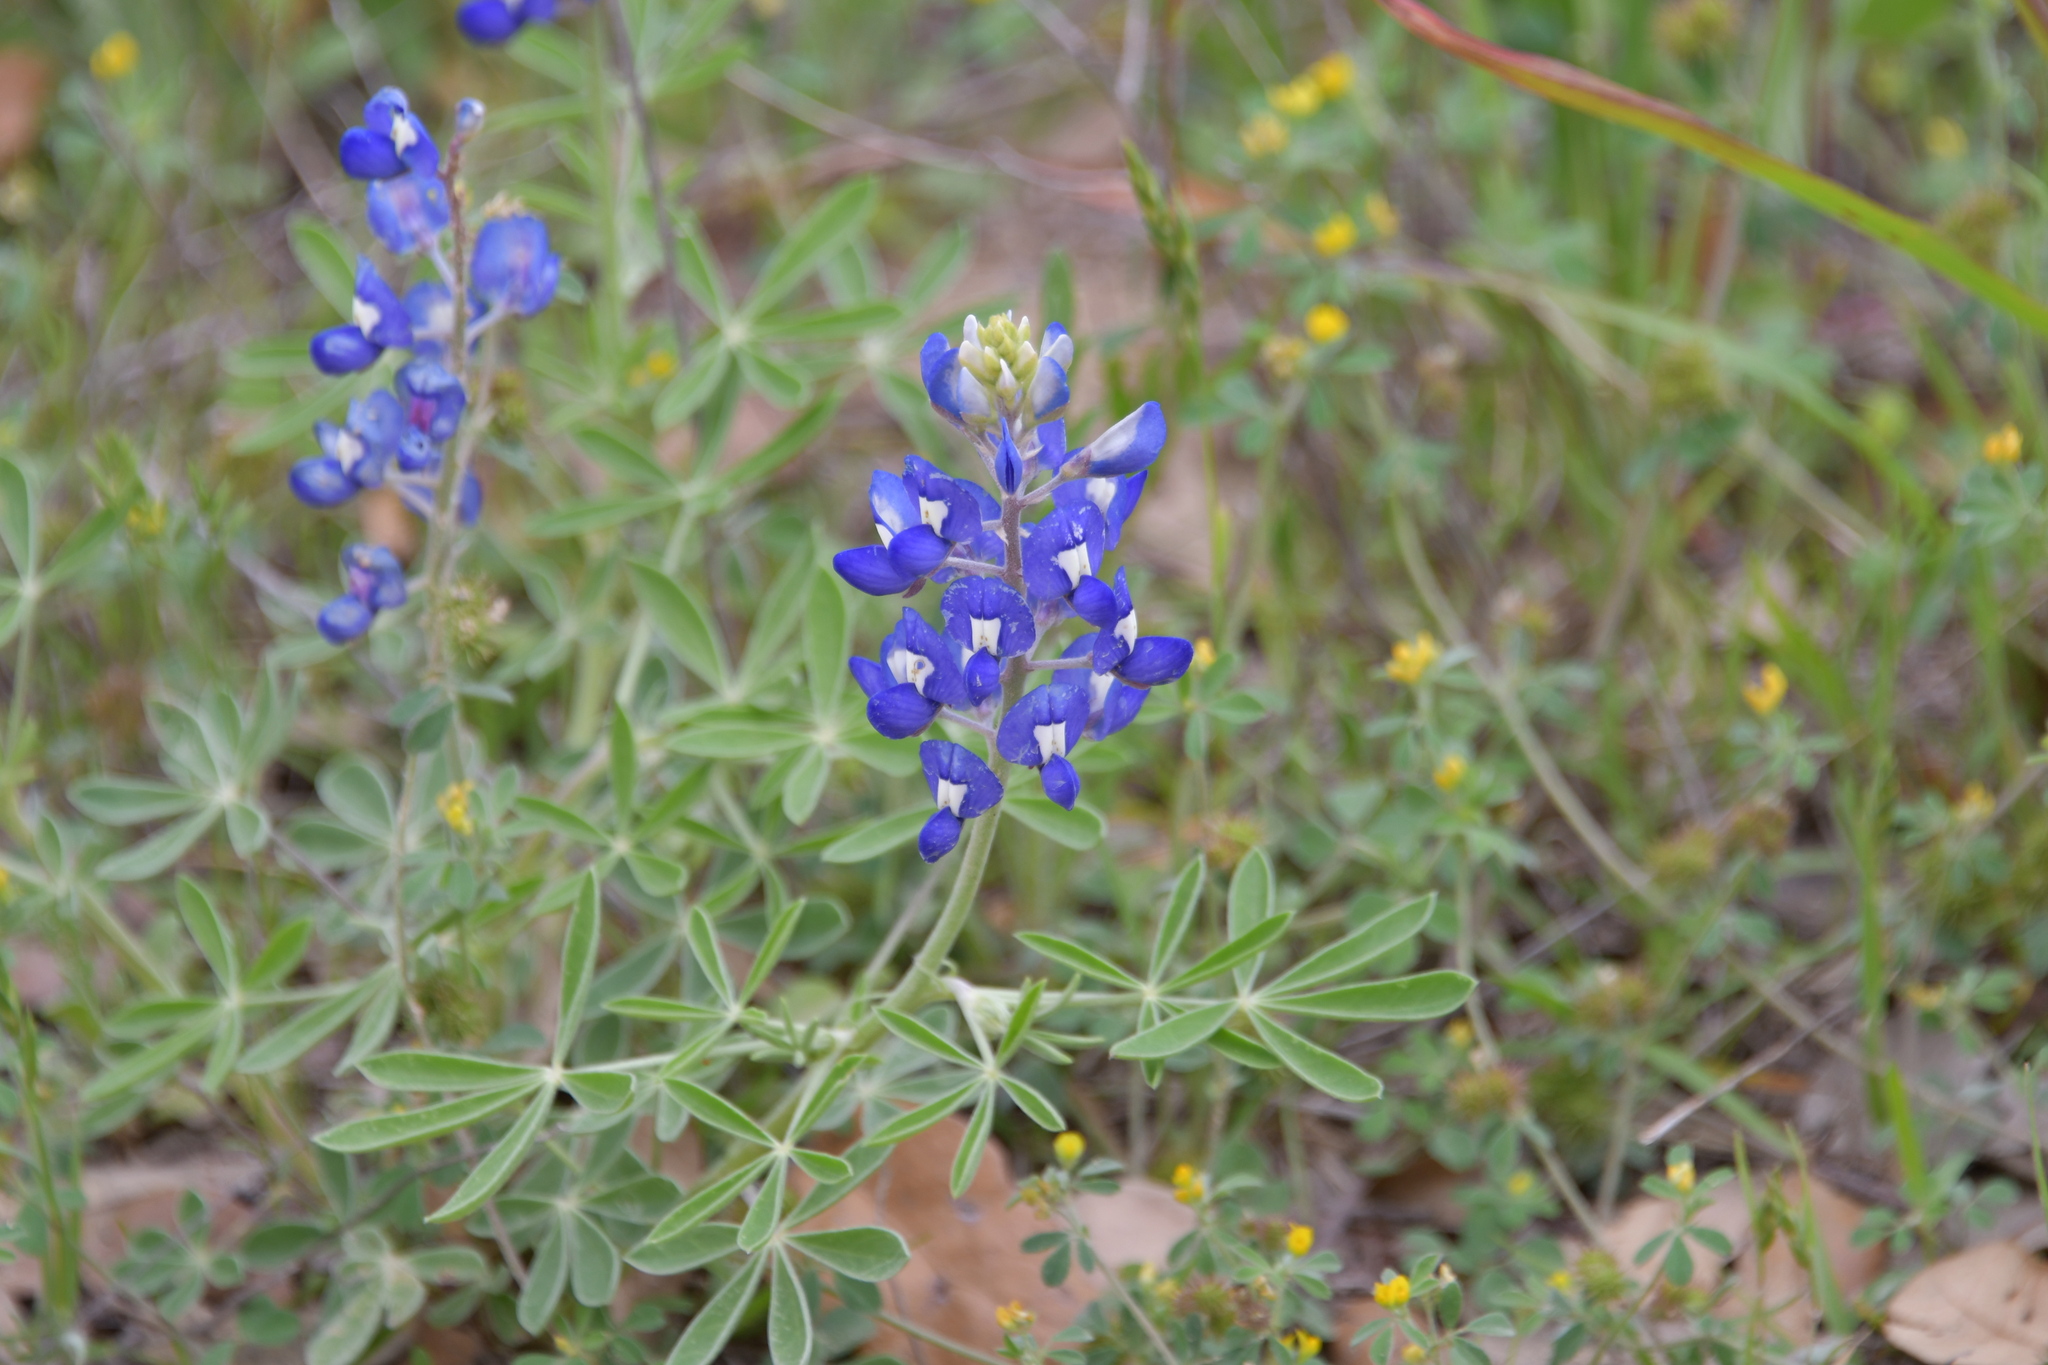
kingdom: Plantae
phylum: Tracheophyta
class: Magnoliopsida
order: Fabales
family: Fabaceae
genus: Lupinus
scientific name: Lupinus texensis
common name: Texas bluebonnet
